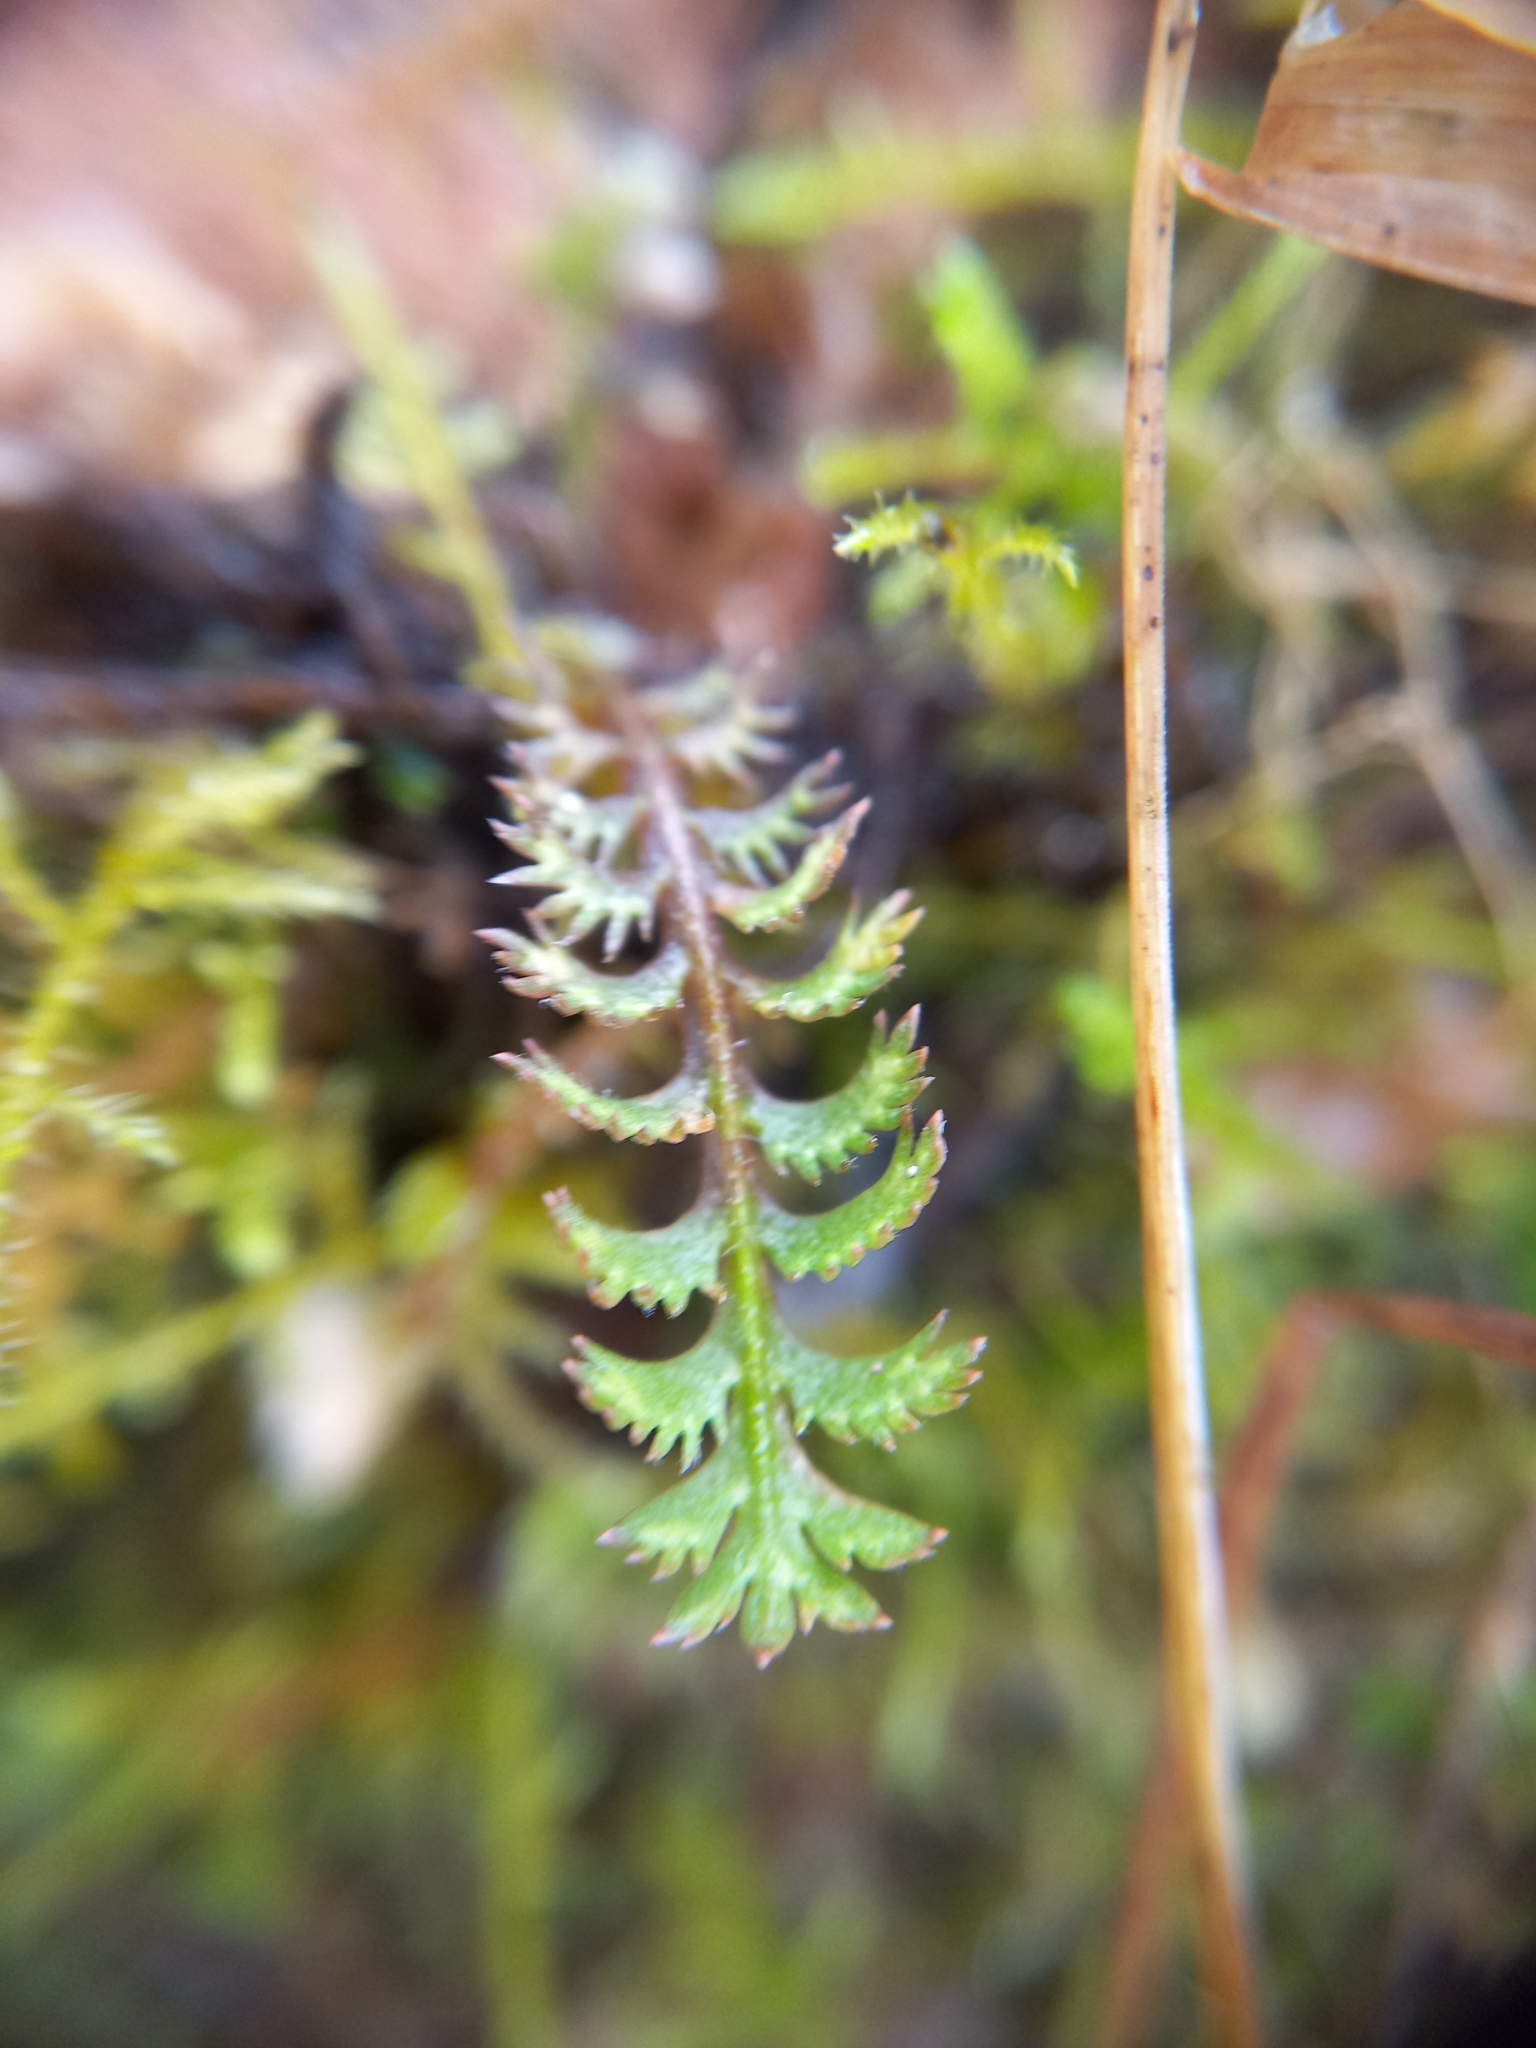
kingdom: Plantae
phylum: Tracheophyta
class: Magnoliopsida
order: Asterales
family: Asteraceae
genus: Leptinella
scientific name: Leptinella squalida
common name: New zealand brass-buttons
